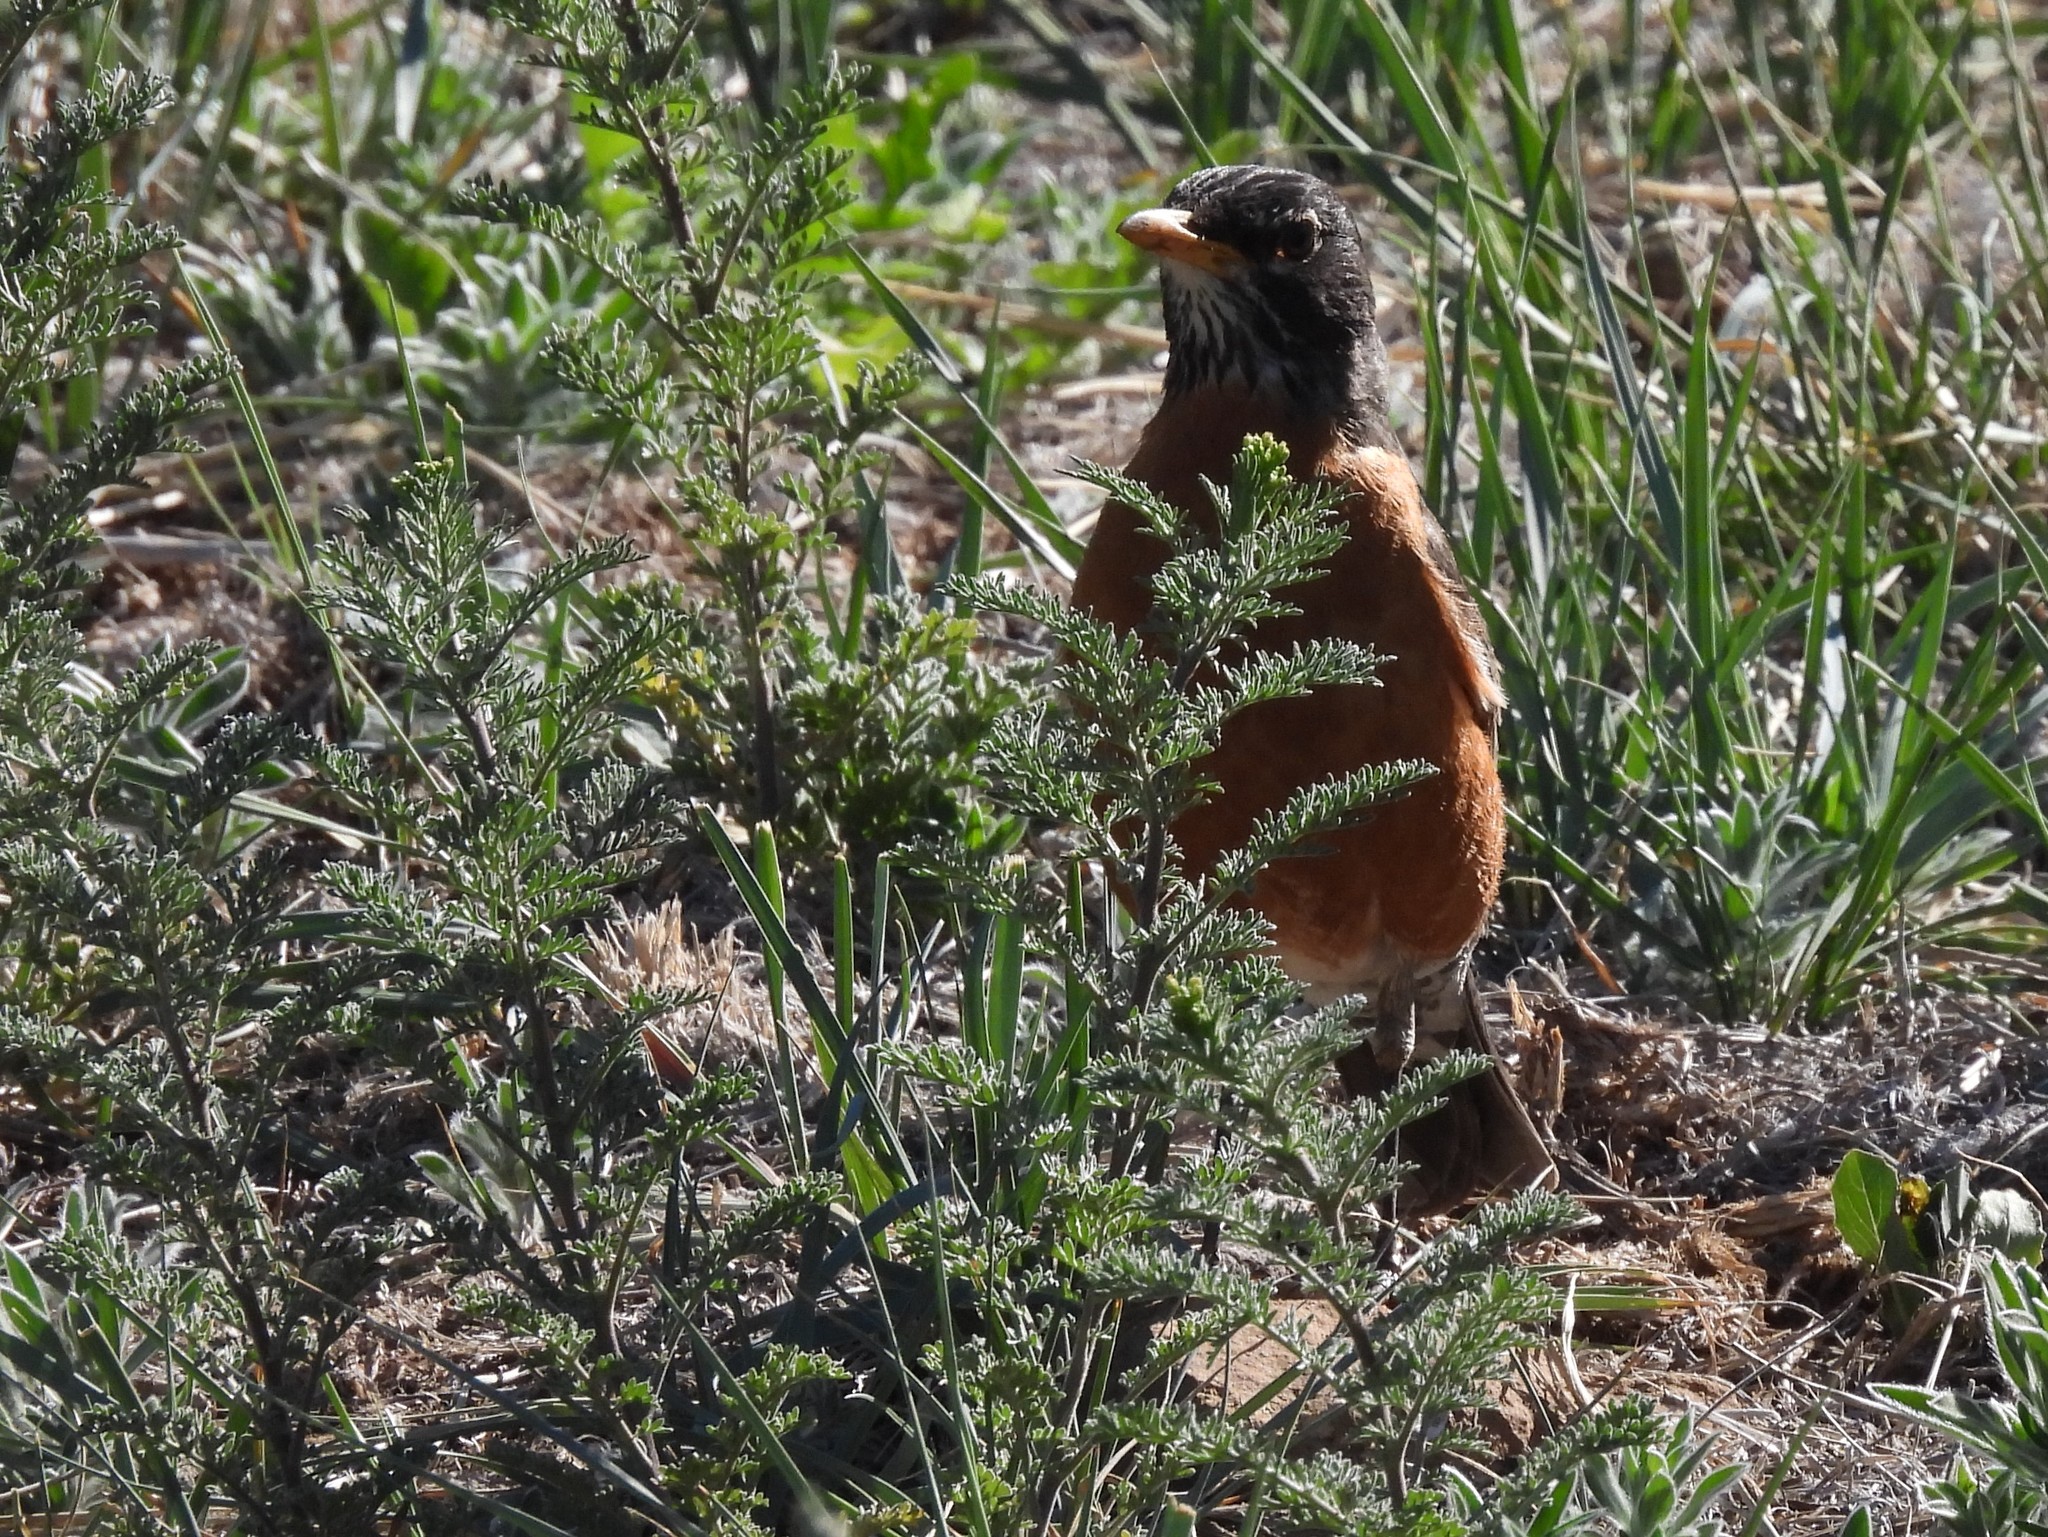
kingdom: Animalia
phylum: Chordata
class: Aves
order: Passeriformes
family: Turdidae
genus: Turdus
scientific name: Turdus migratorius
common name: American robin
